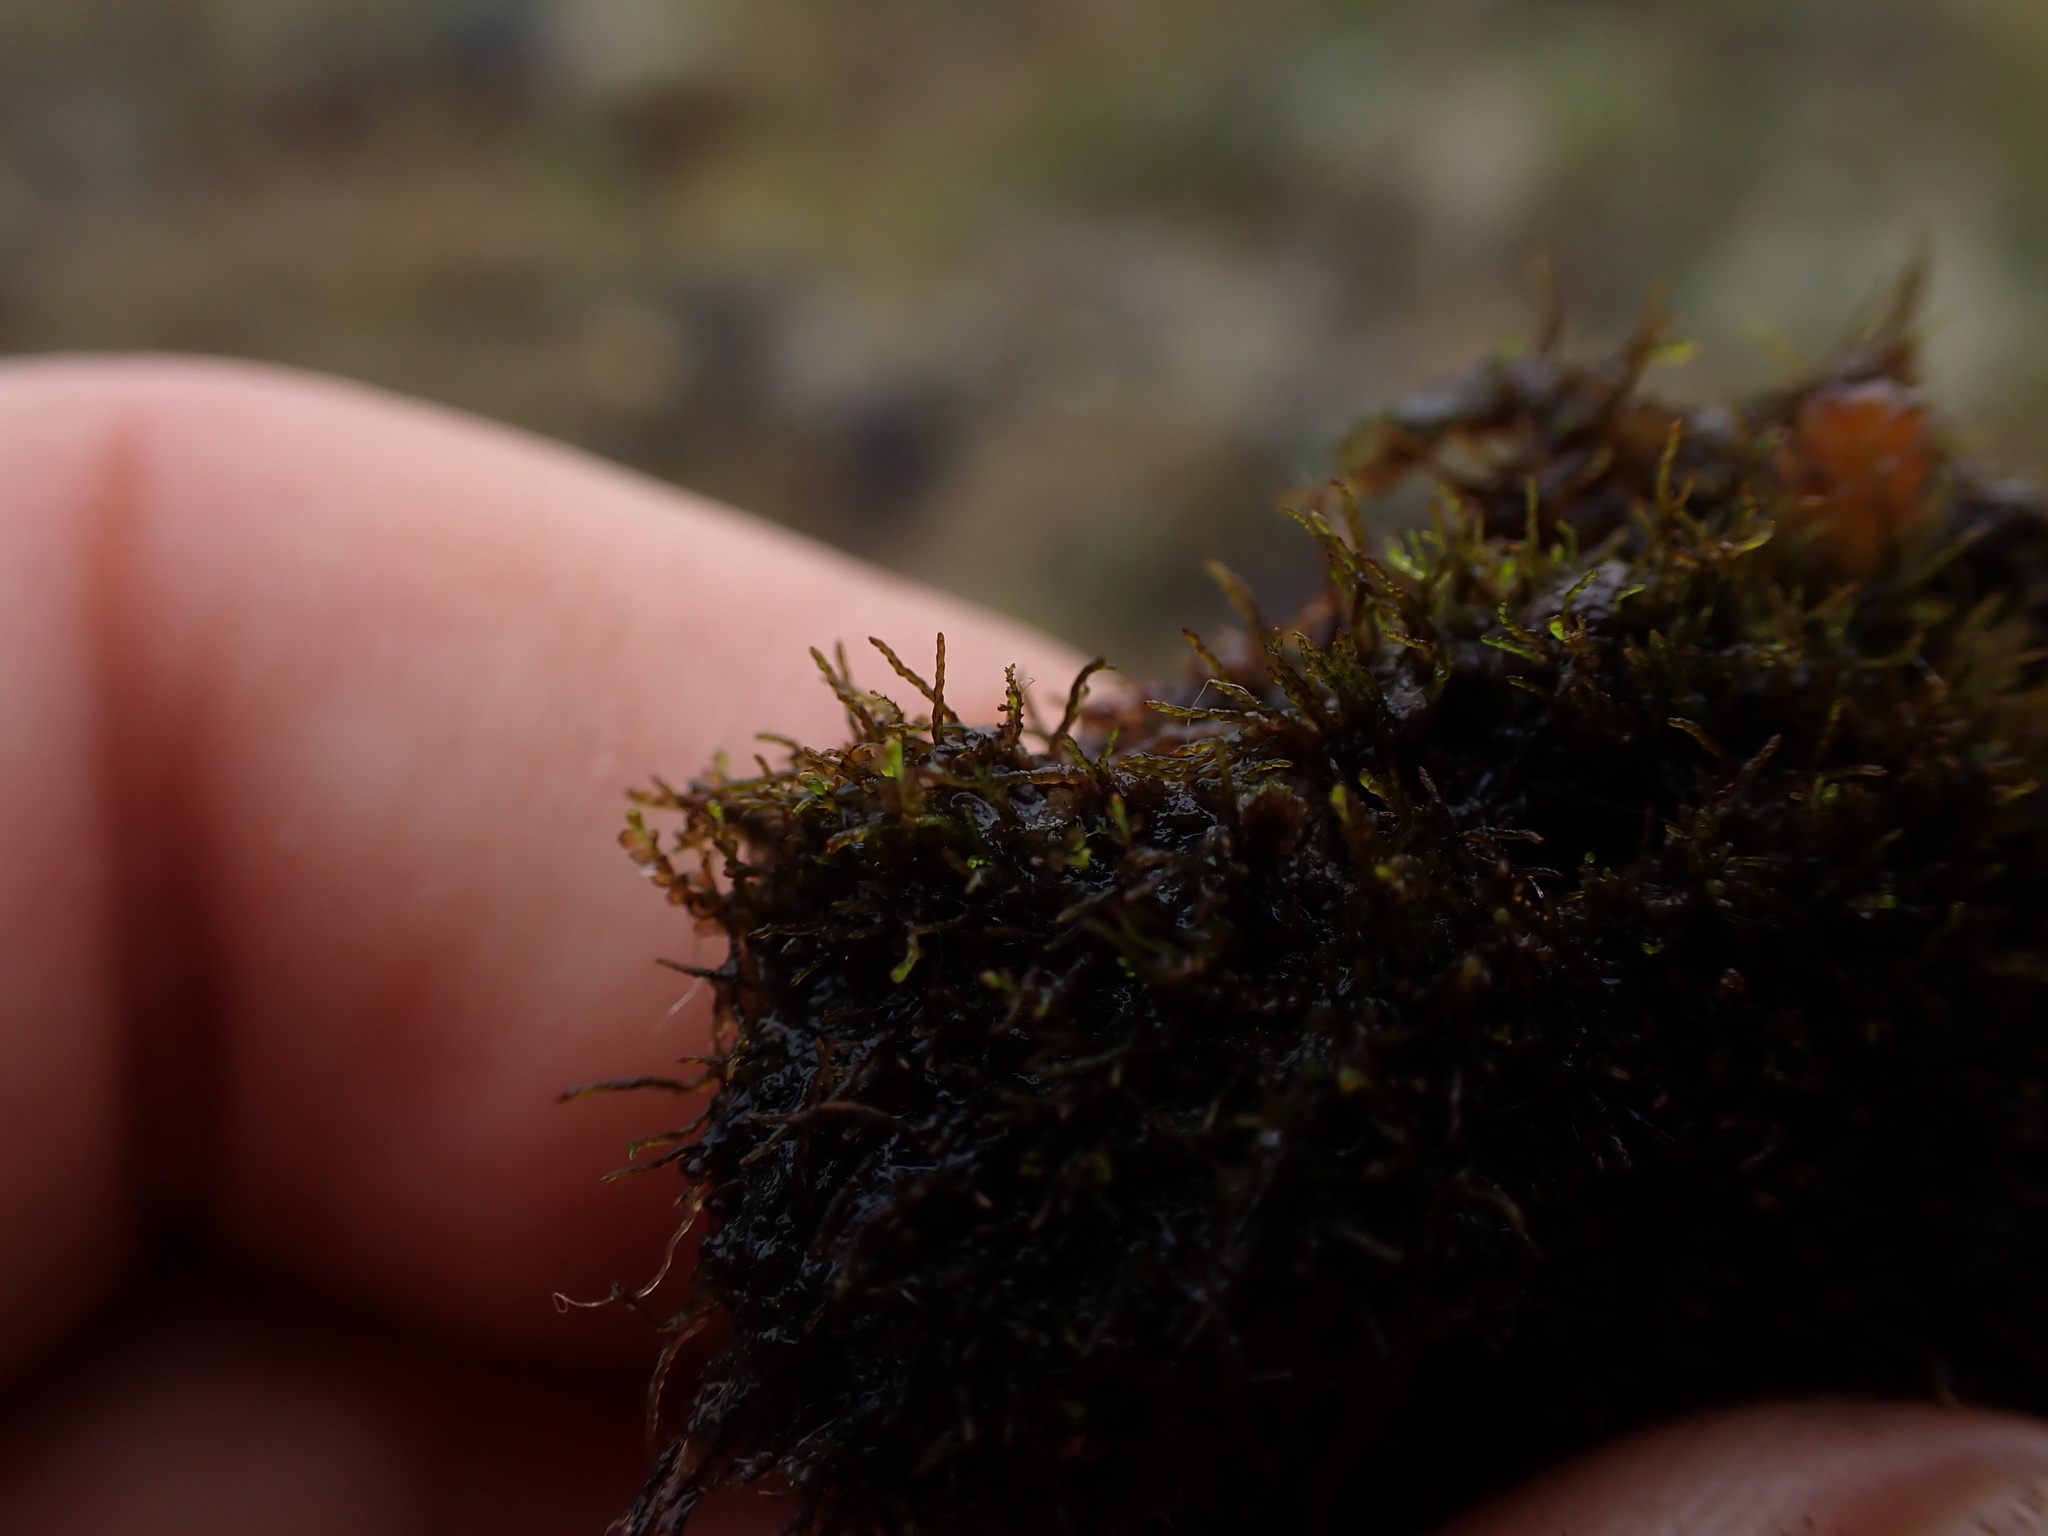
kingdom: Plantae
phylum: Marchantiophyta
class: Jungermanniopsida
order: Jungermanniales
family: Anastrophyllaceae
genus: Gymnocolea
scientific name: Gymnocolea inflata
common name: Inflated notchwort
